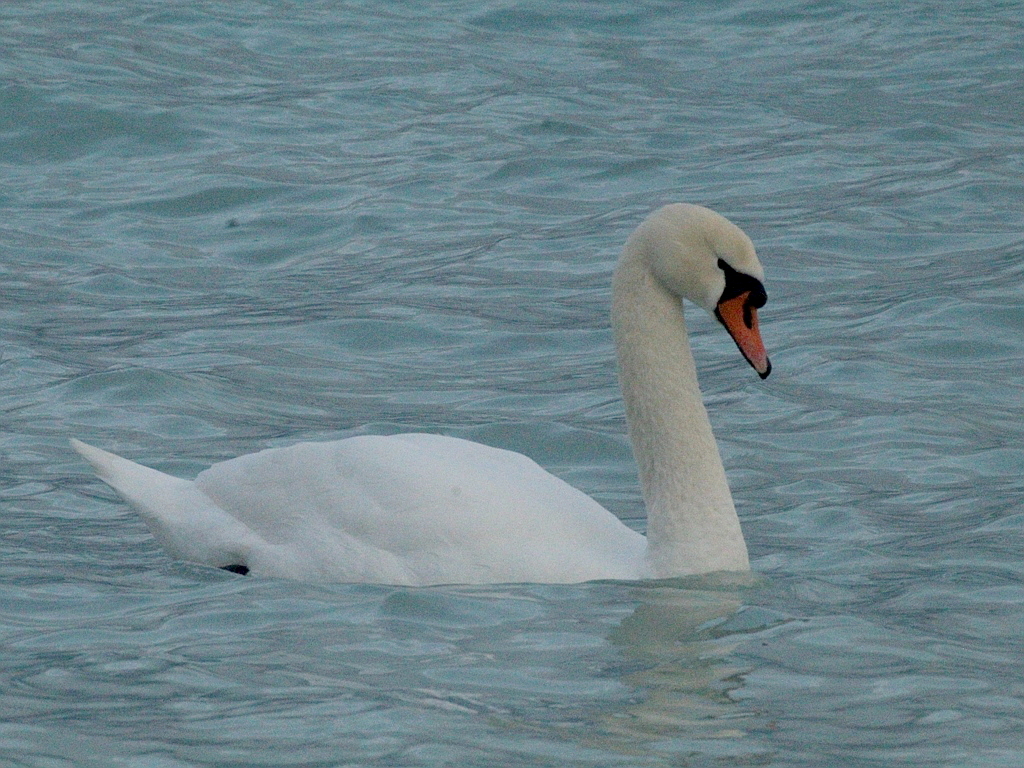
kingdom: Animalia
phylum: Chordata
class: Aves
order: Anseriformes
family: Anatidae
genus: Cygnus
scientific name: Cygnus olor
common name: Mute swan
